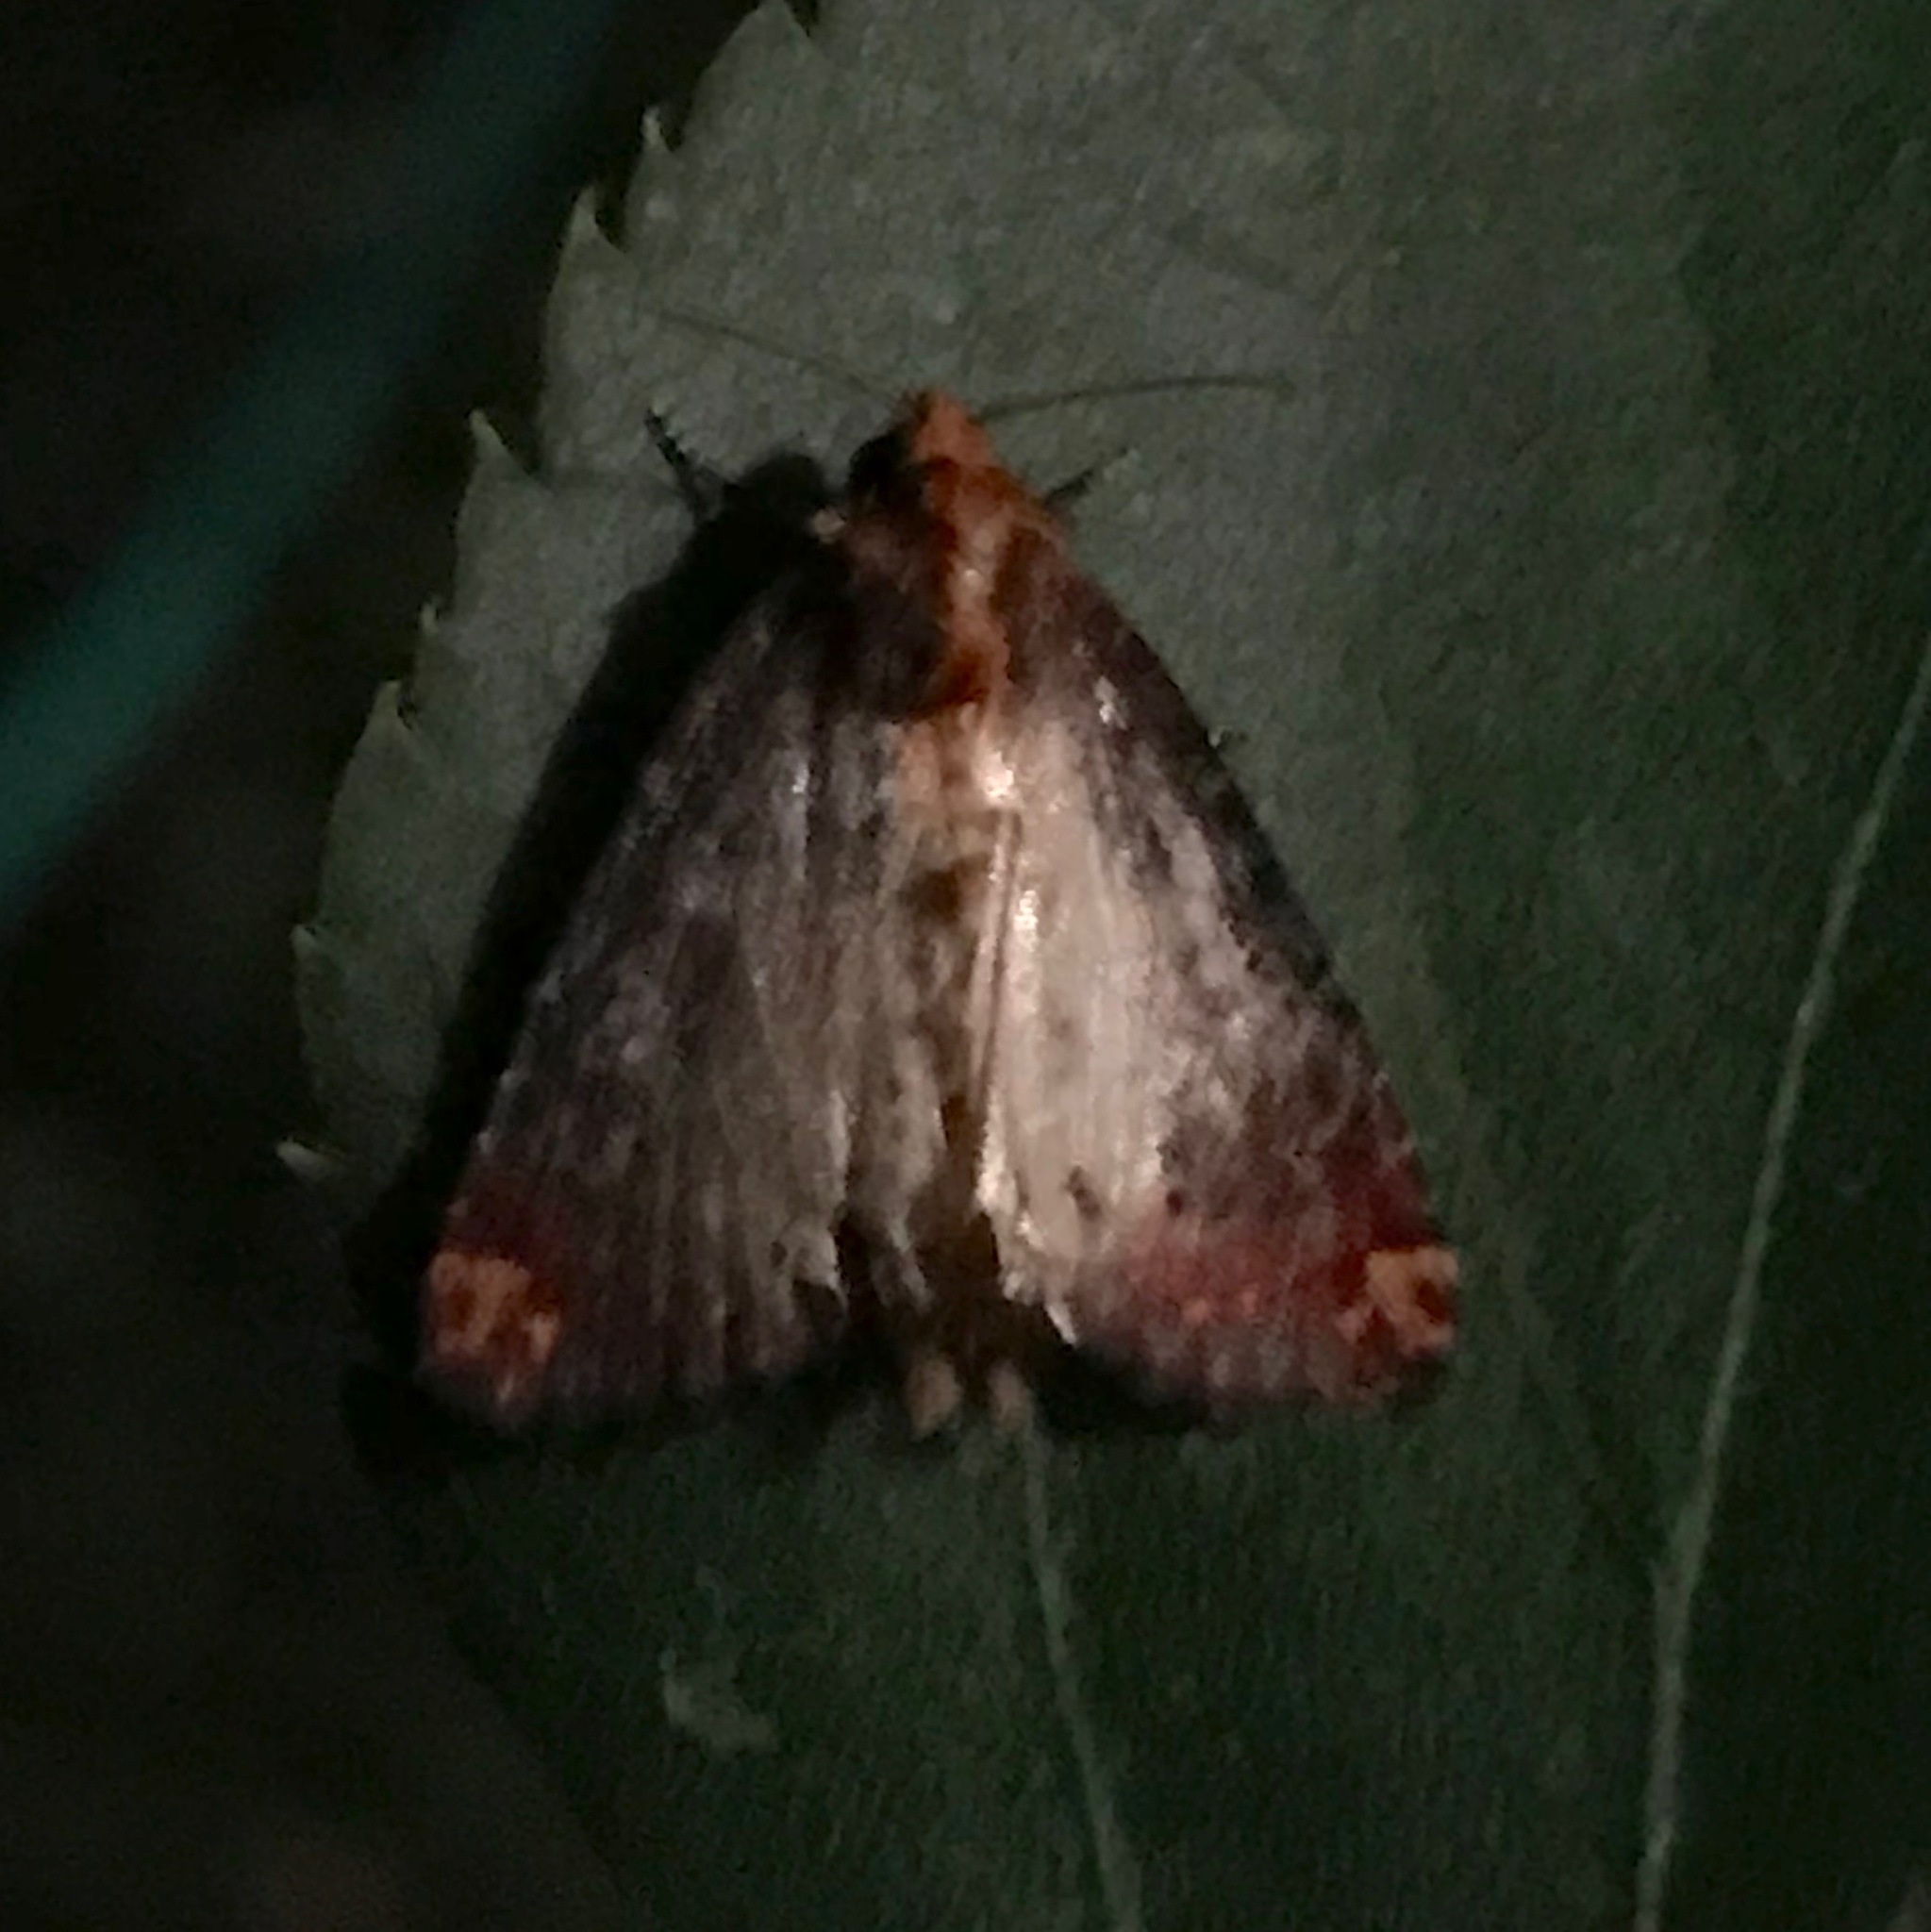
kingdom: Animalia
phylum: Arthropoda
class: Insecta
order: Lepidoptera
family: Noctuidae
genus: Achatodes
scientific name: Achatodes zeae
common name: Elder shoot borer
